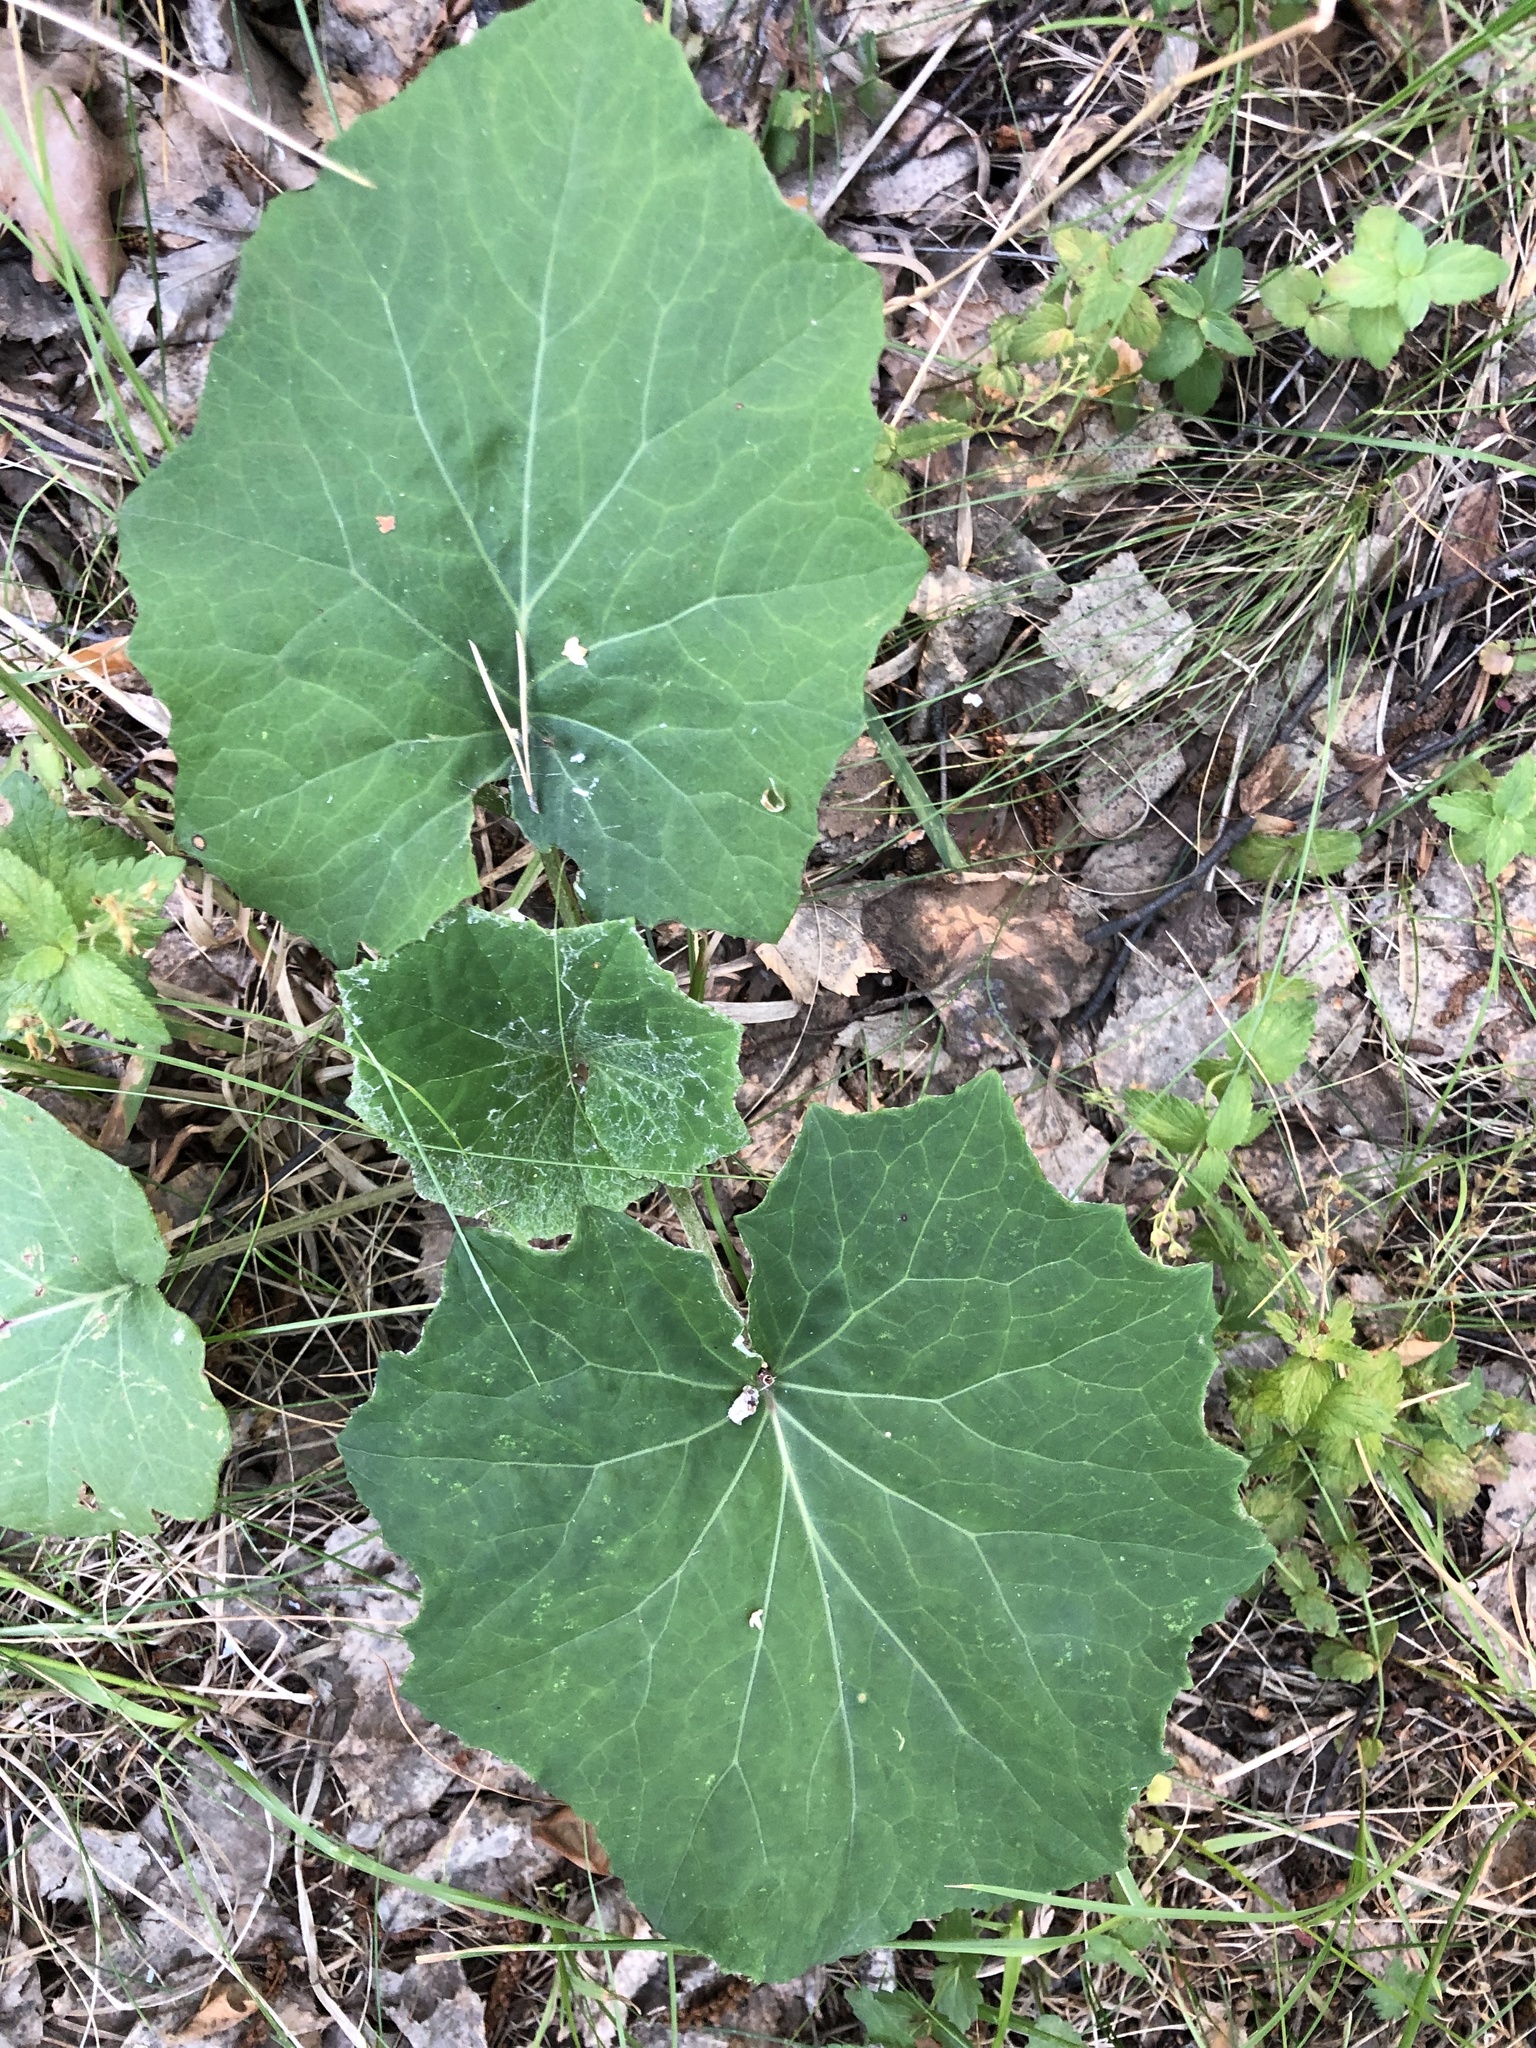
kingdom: Plantae
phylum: Tracheophyta
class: Magnoliopsida
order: Asterales
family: Asteraceae
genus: Tussilago
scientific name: Tussilago farfara
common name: Coltsfoot
